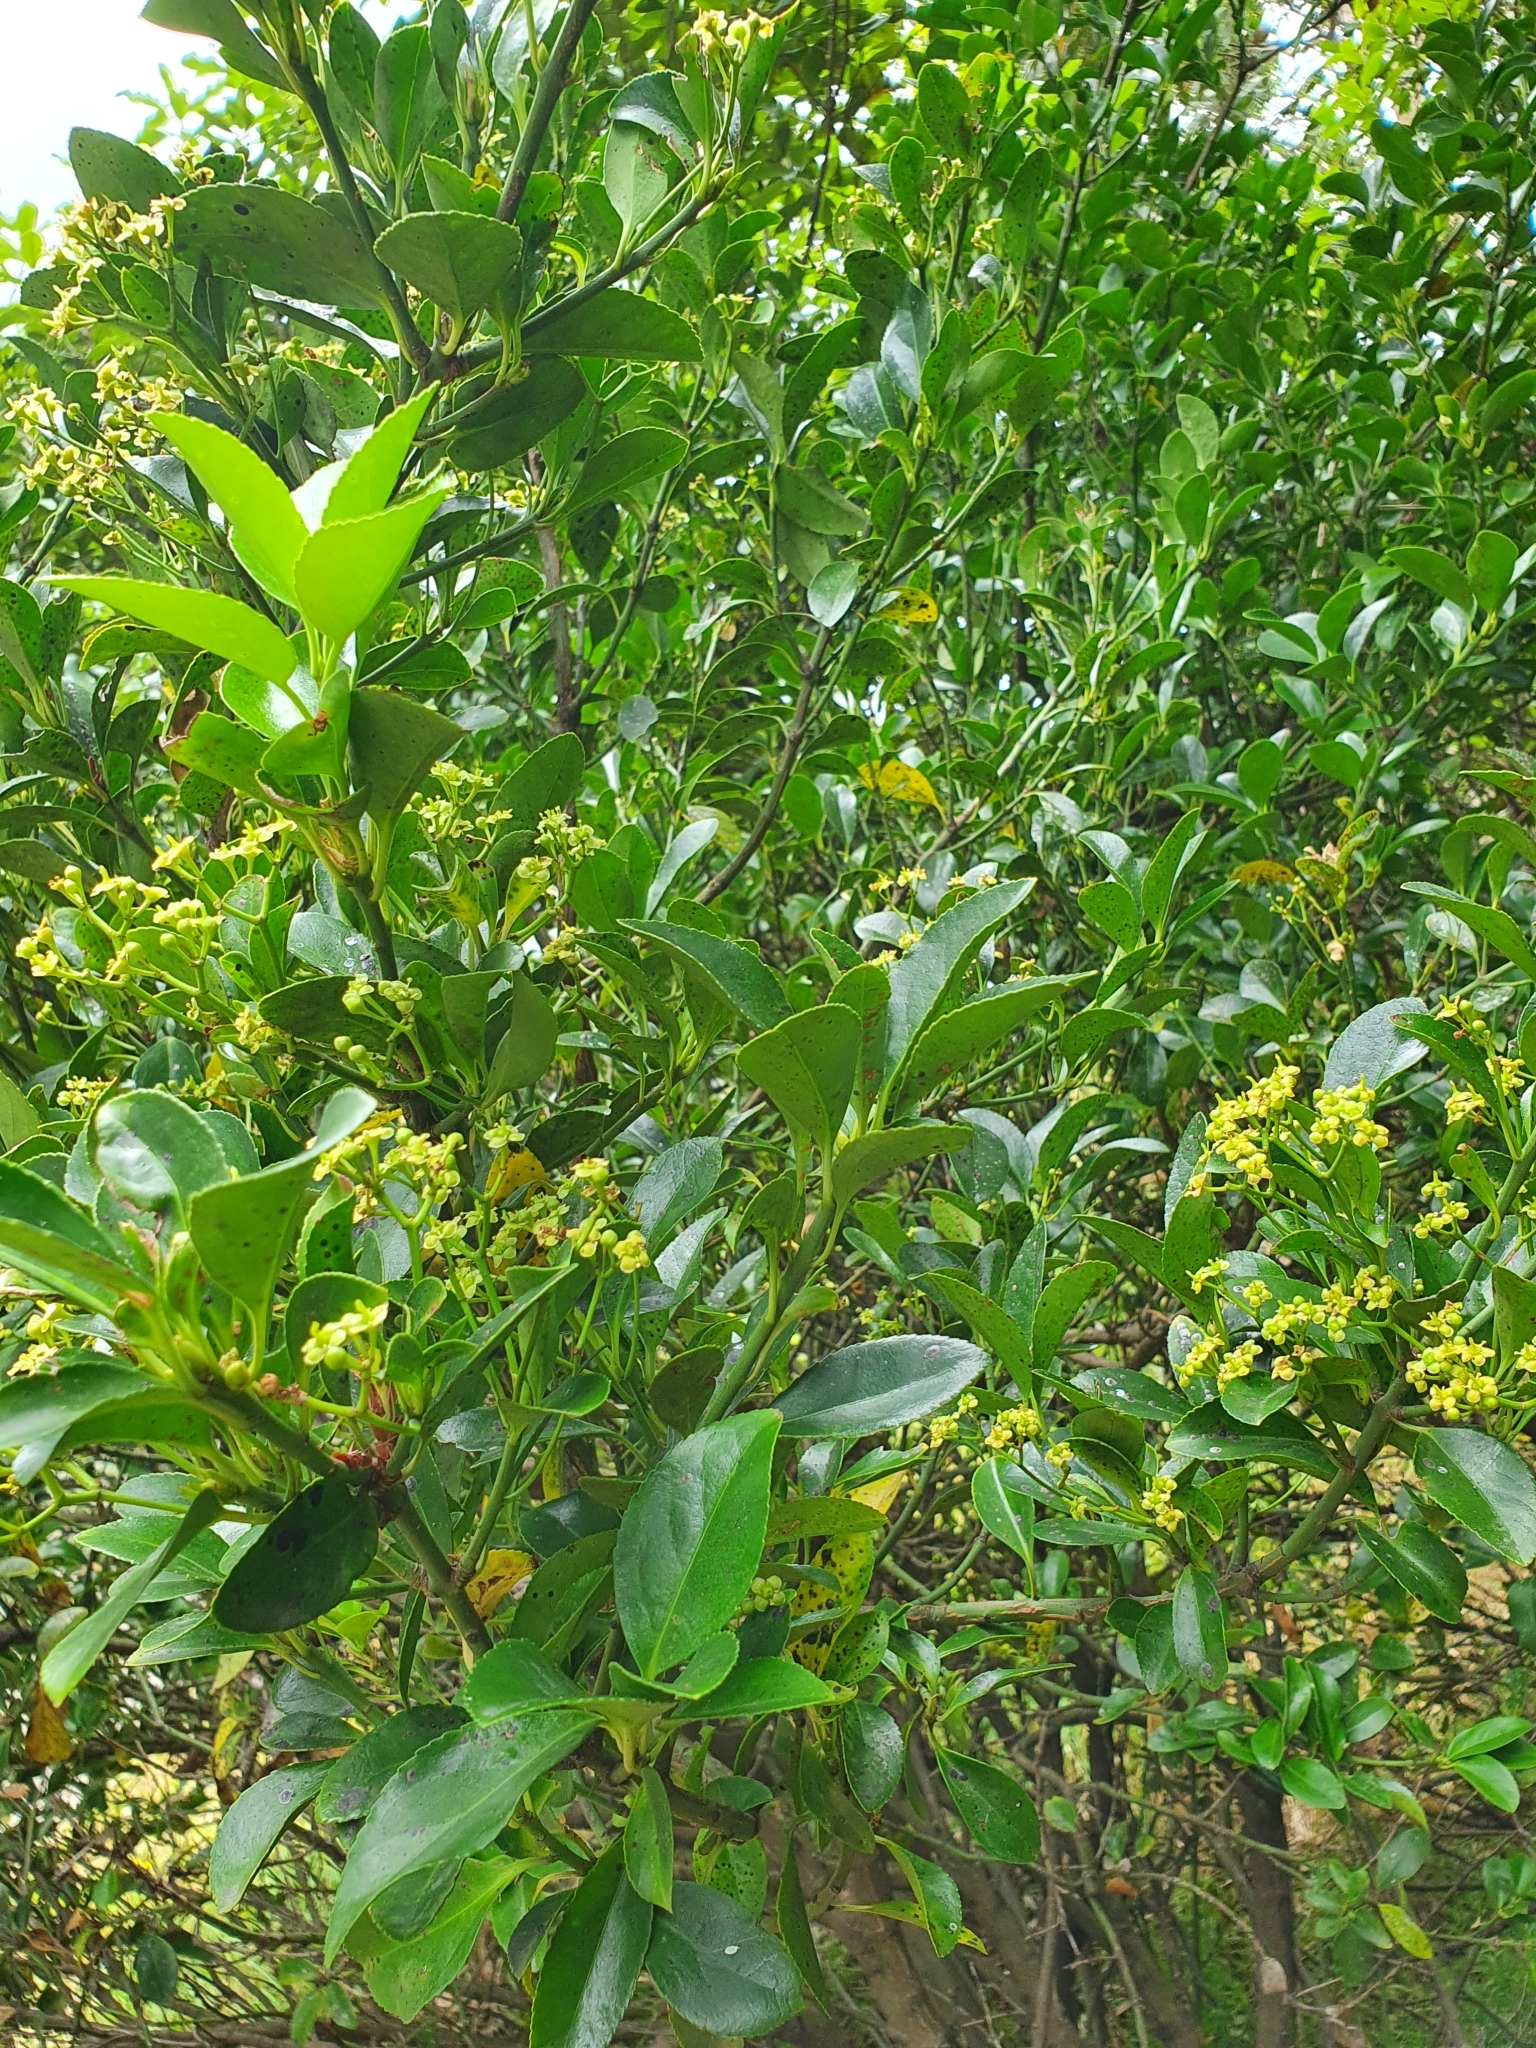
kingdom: Plantae
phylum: Tracheophyta
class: Magnoliopsida
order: Celastrales
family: Celastraceae
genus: Euonymus
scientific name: Euonymus japonicus
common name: Japanese spindletree
